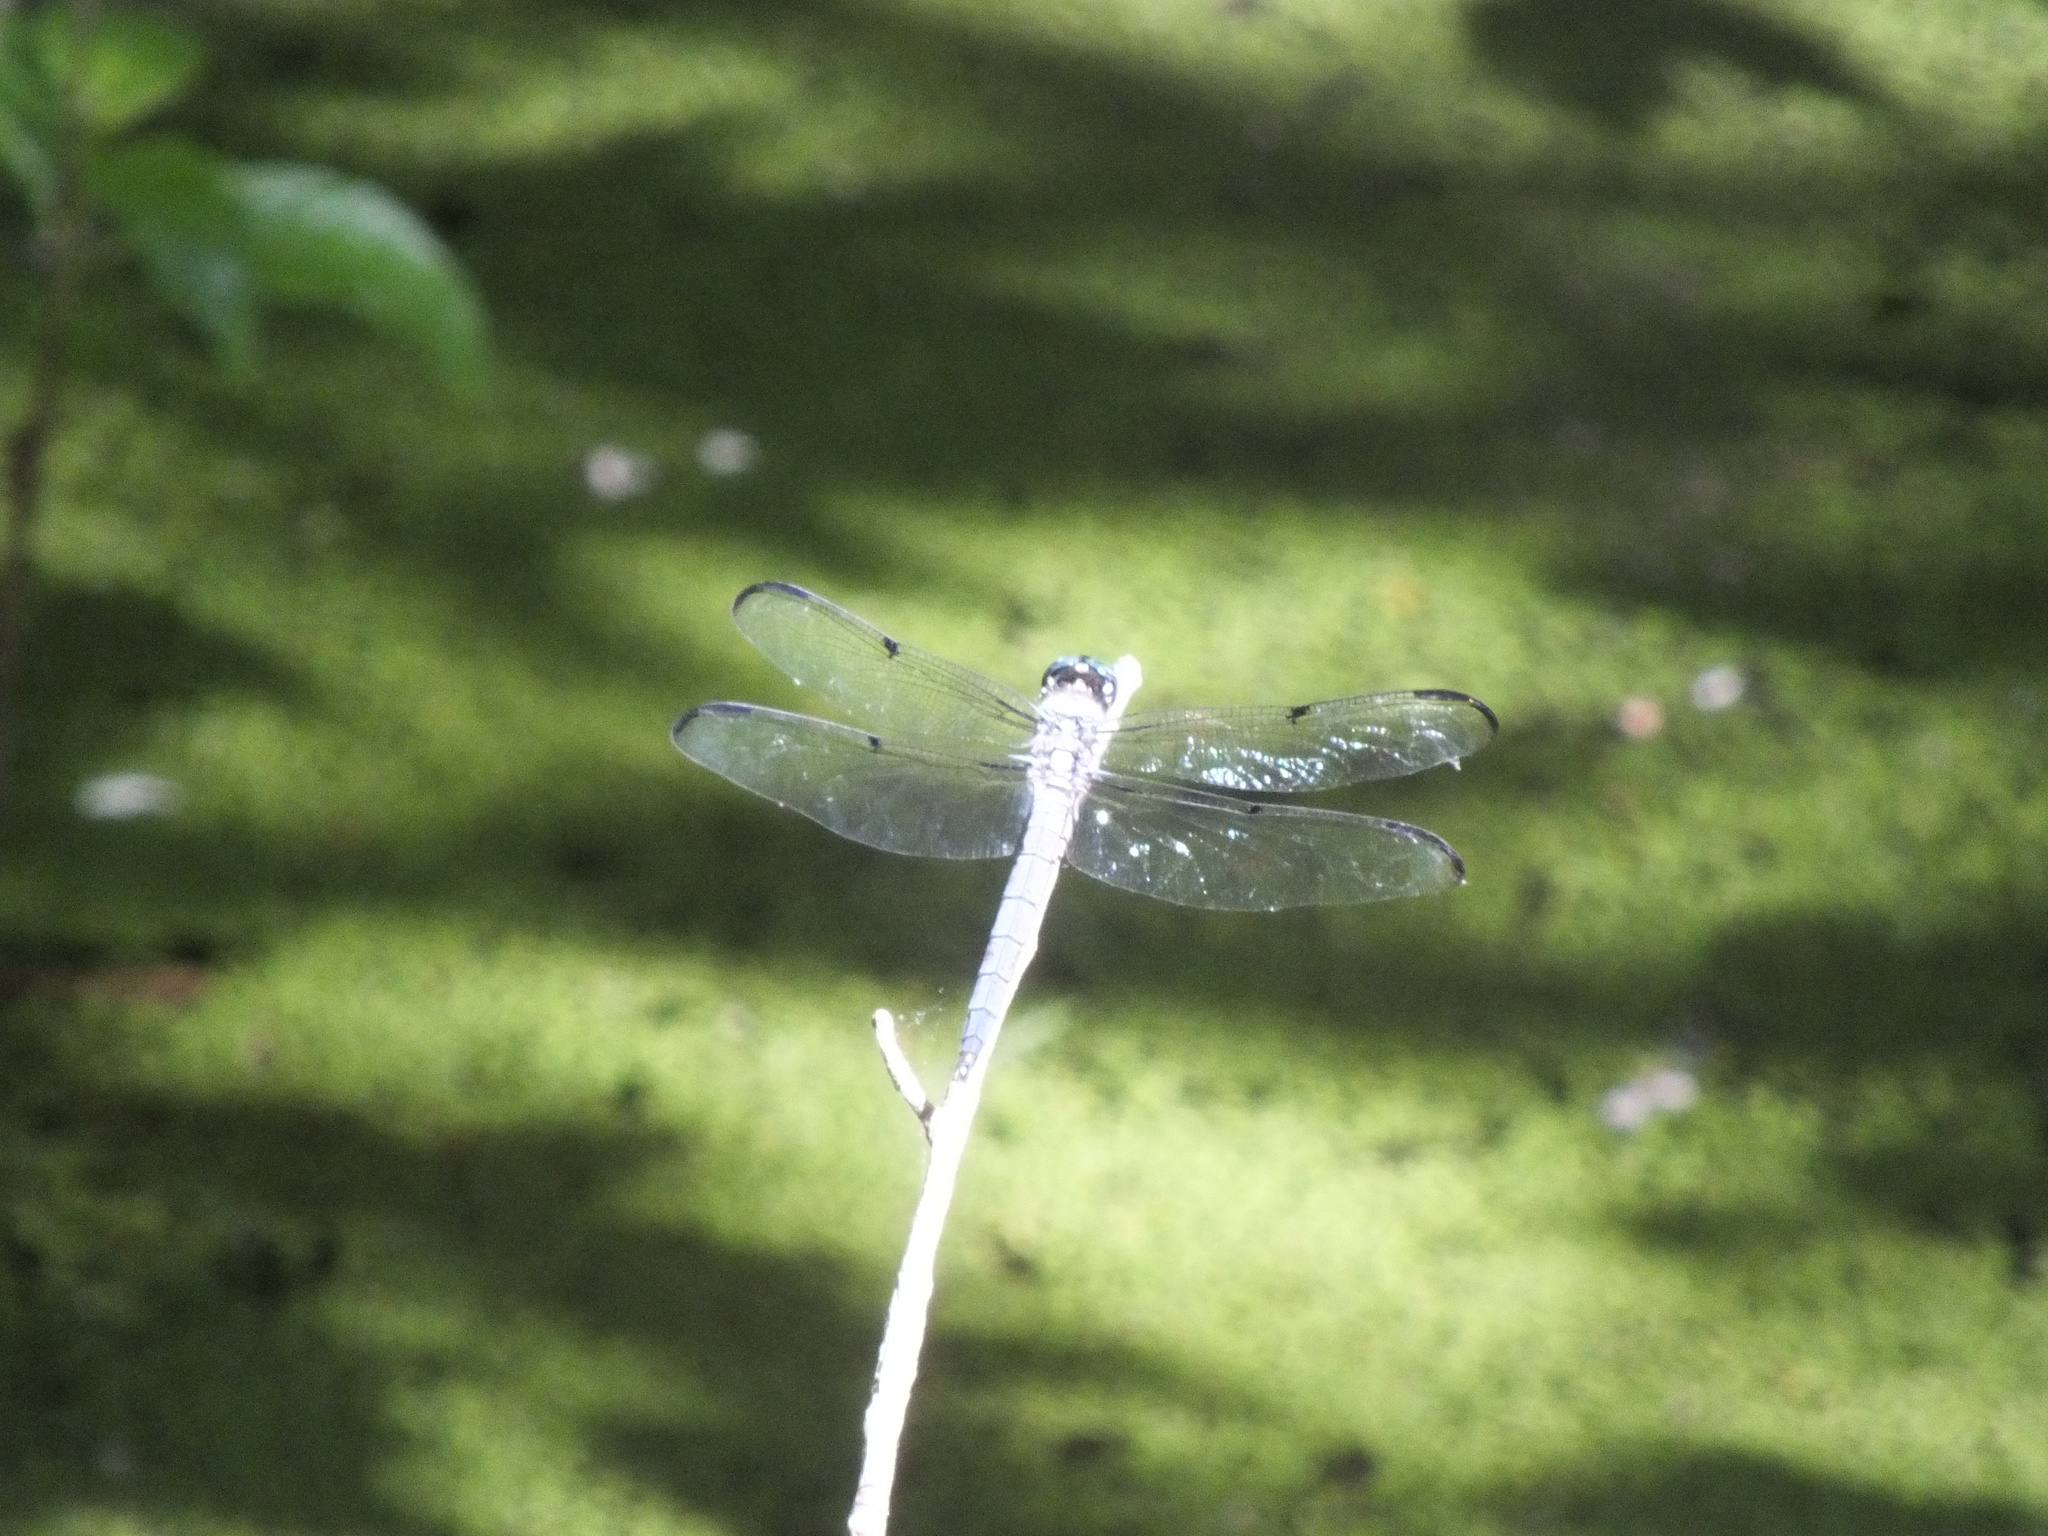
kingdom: Animalia
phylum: Arthropoda
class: Insecta
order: Odonata
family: Libellulidae
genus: Libellula
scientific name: Libellula vibrans
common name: Great blue skimmer
